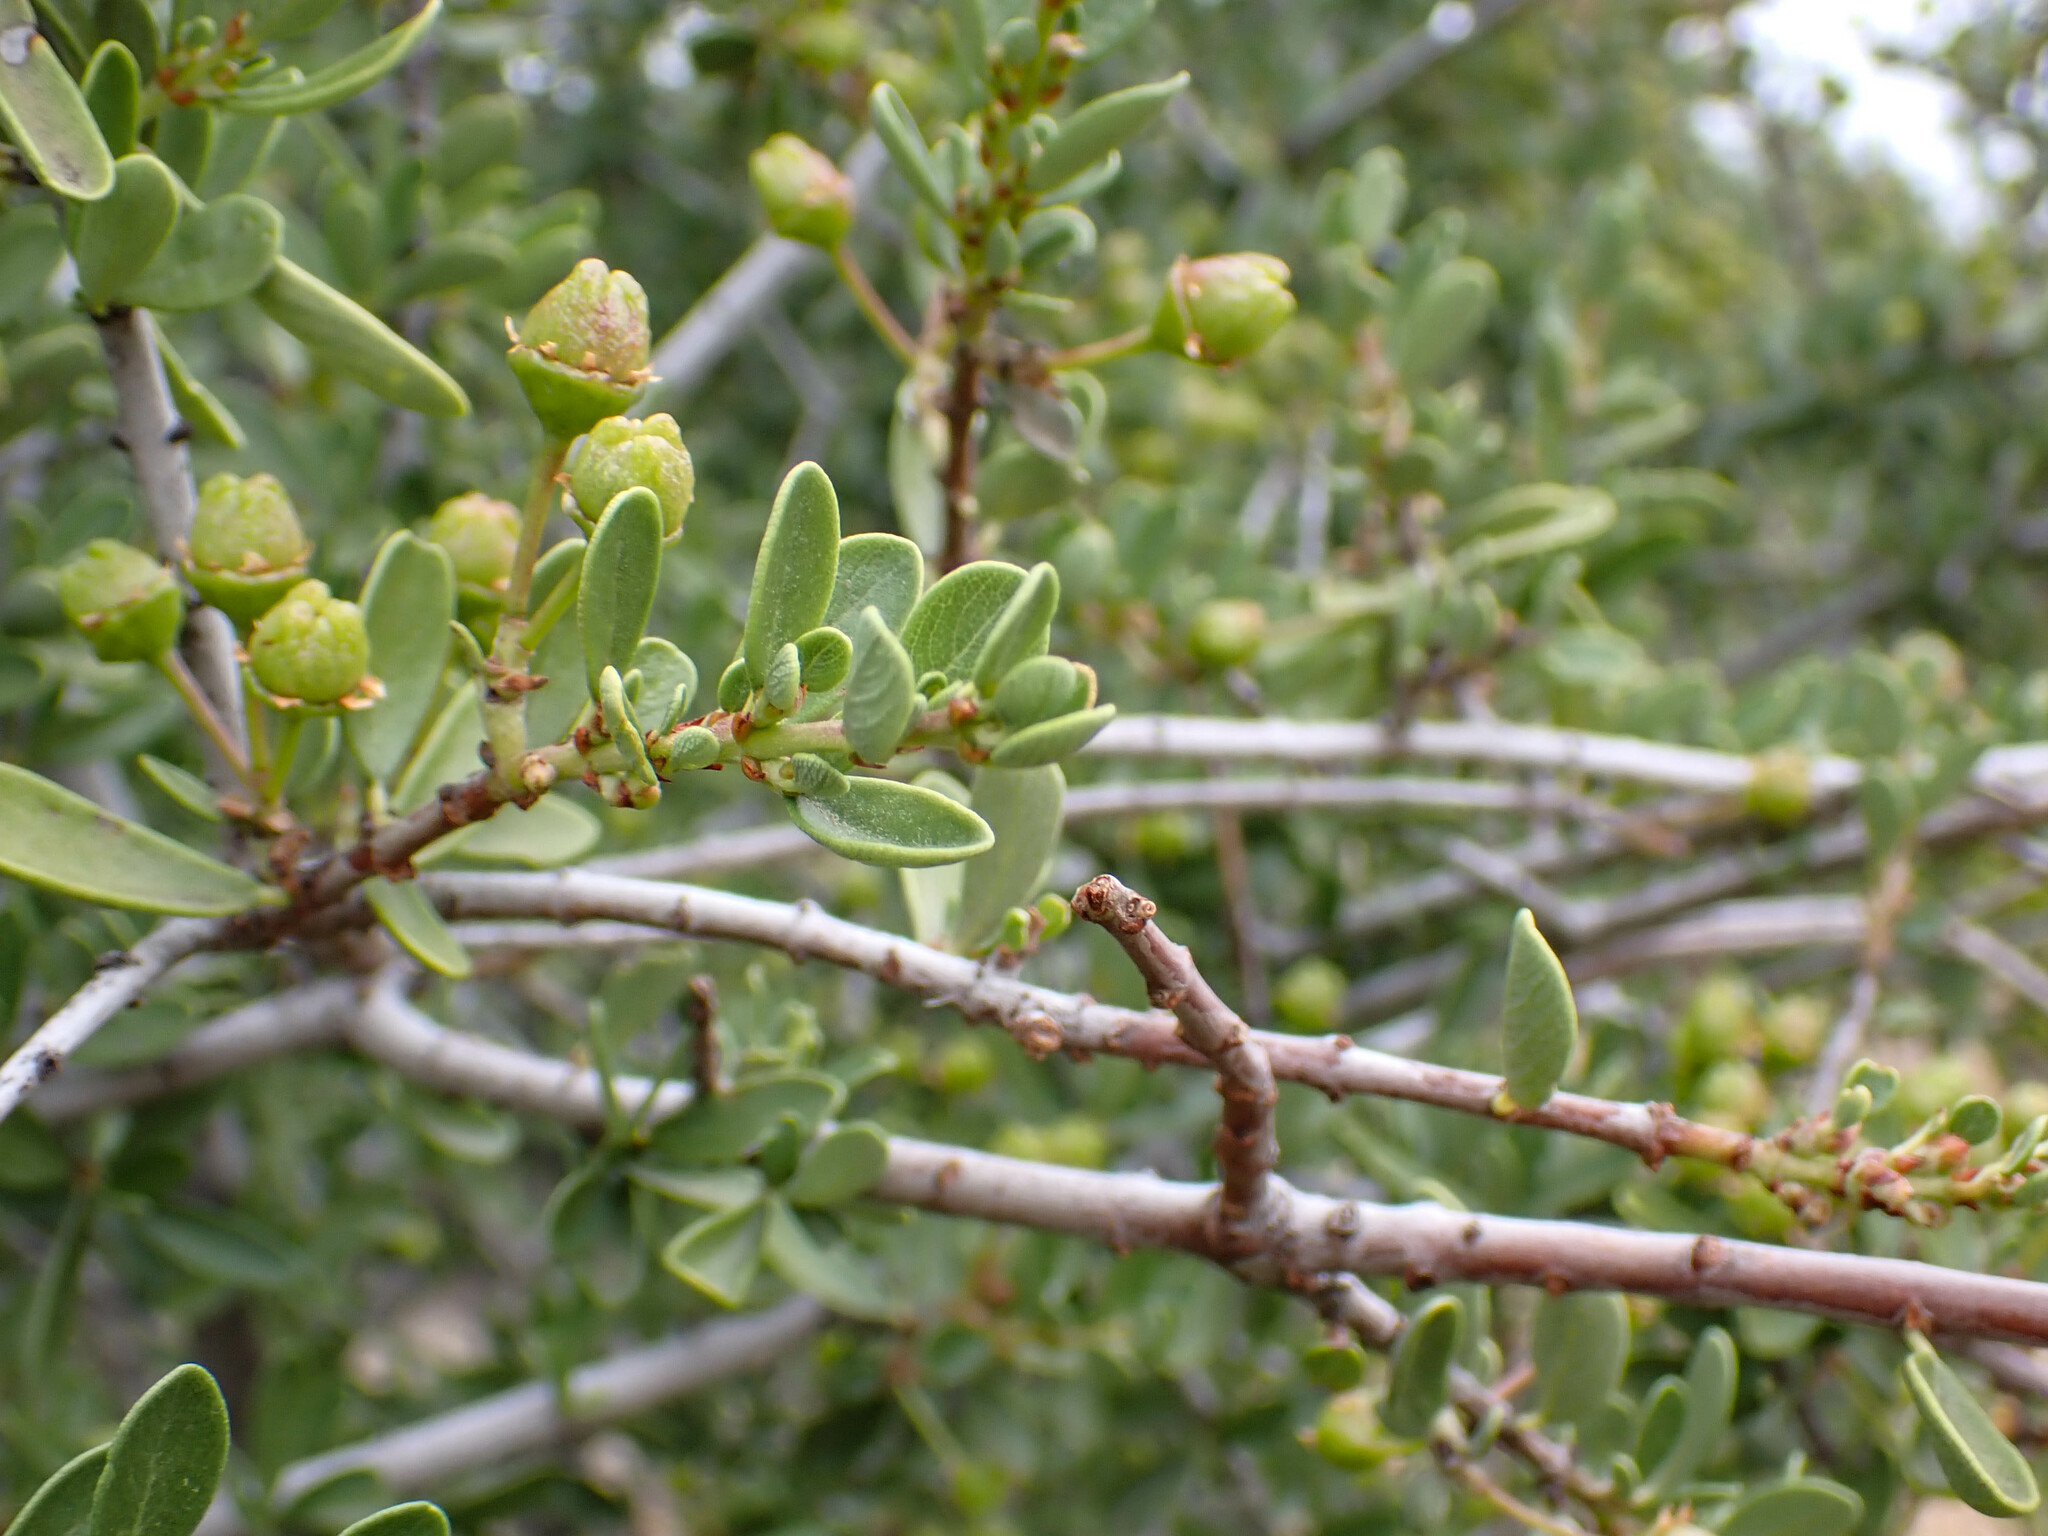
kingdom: Plantae
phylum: Tracheophyta
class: Magnoliopsida
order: Rosales
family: Rhamnaceae
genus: Ceanothus
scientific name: Ceanothus cuneatus
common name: Cuneate ceanothus
